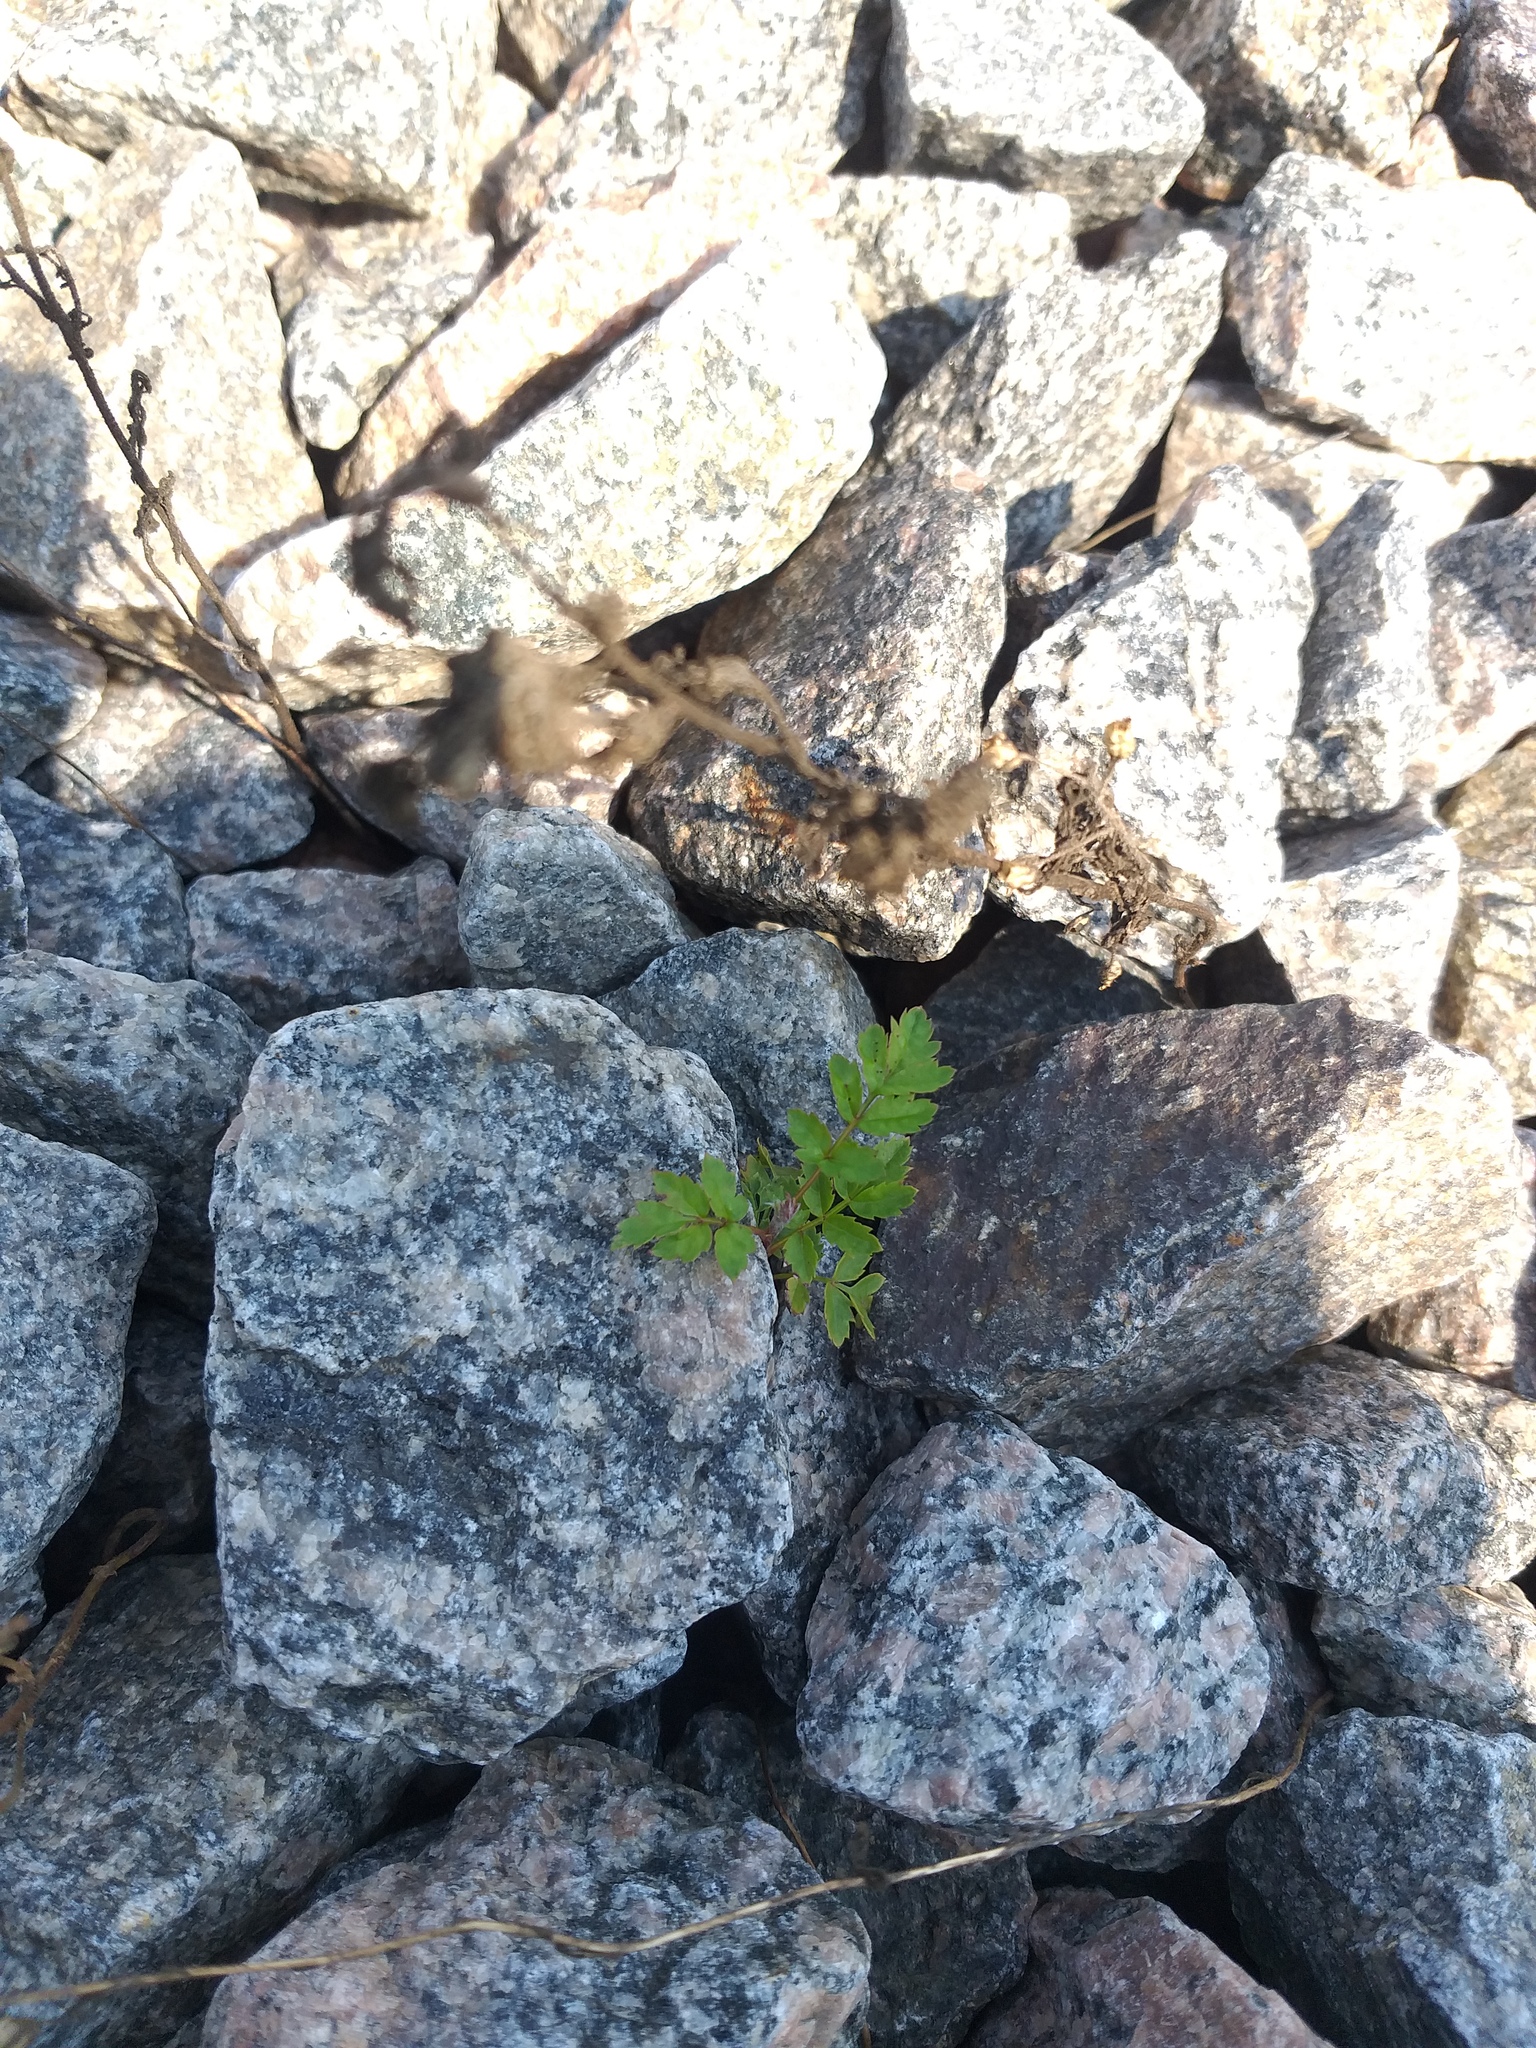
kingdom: Plantae
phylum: Tracheophyta
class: Magnoliopsida
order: Rosales
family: Rosaceae
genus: Sorbus
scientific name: Sorbus aucuparia
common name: Rowan
